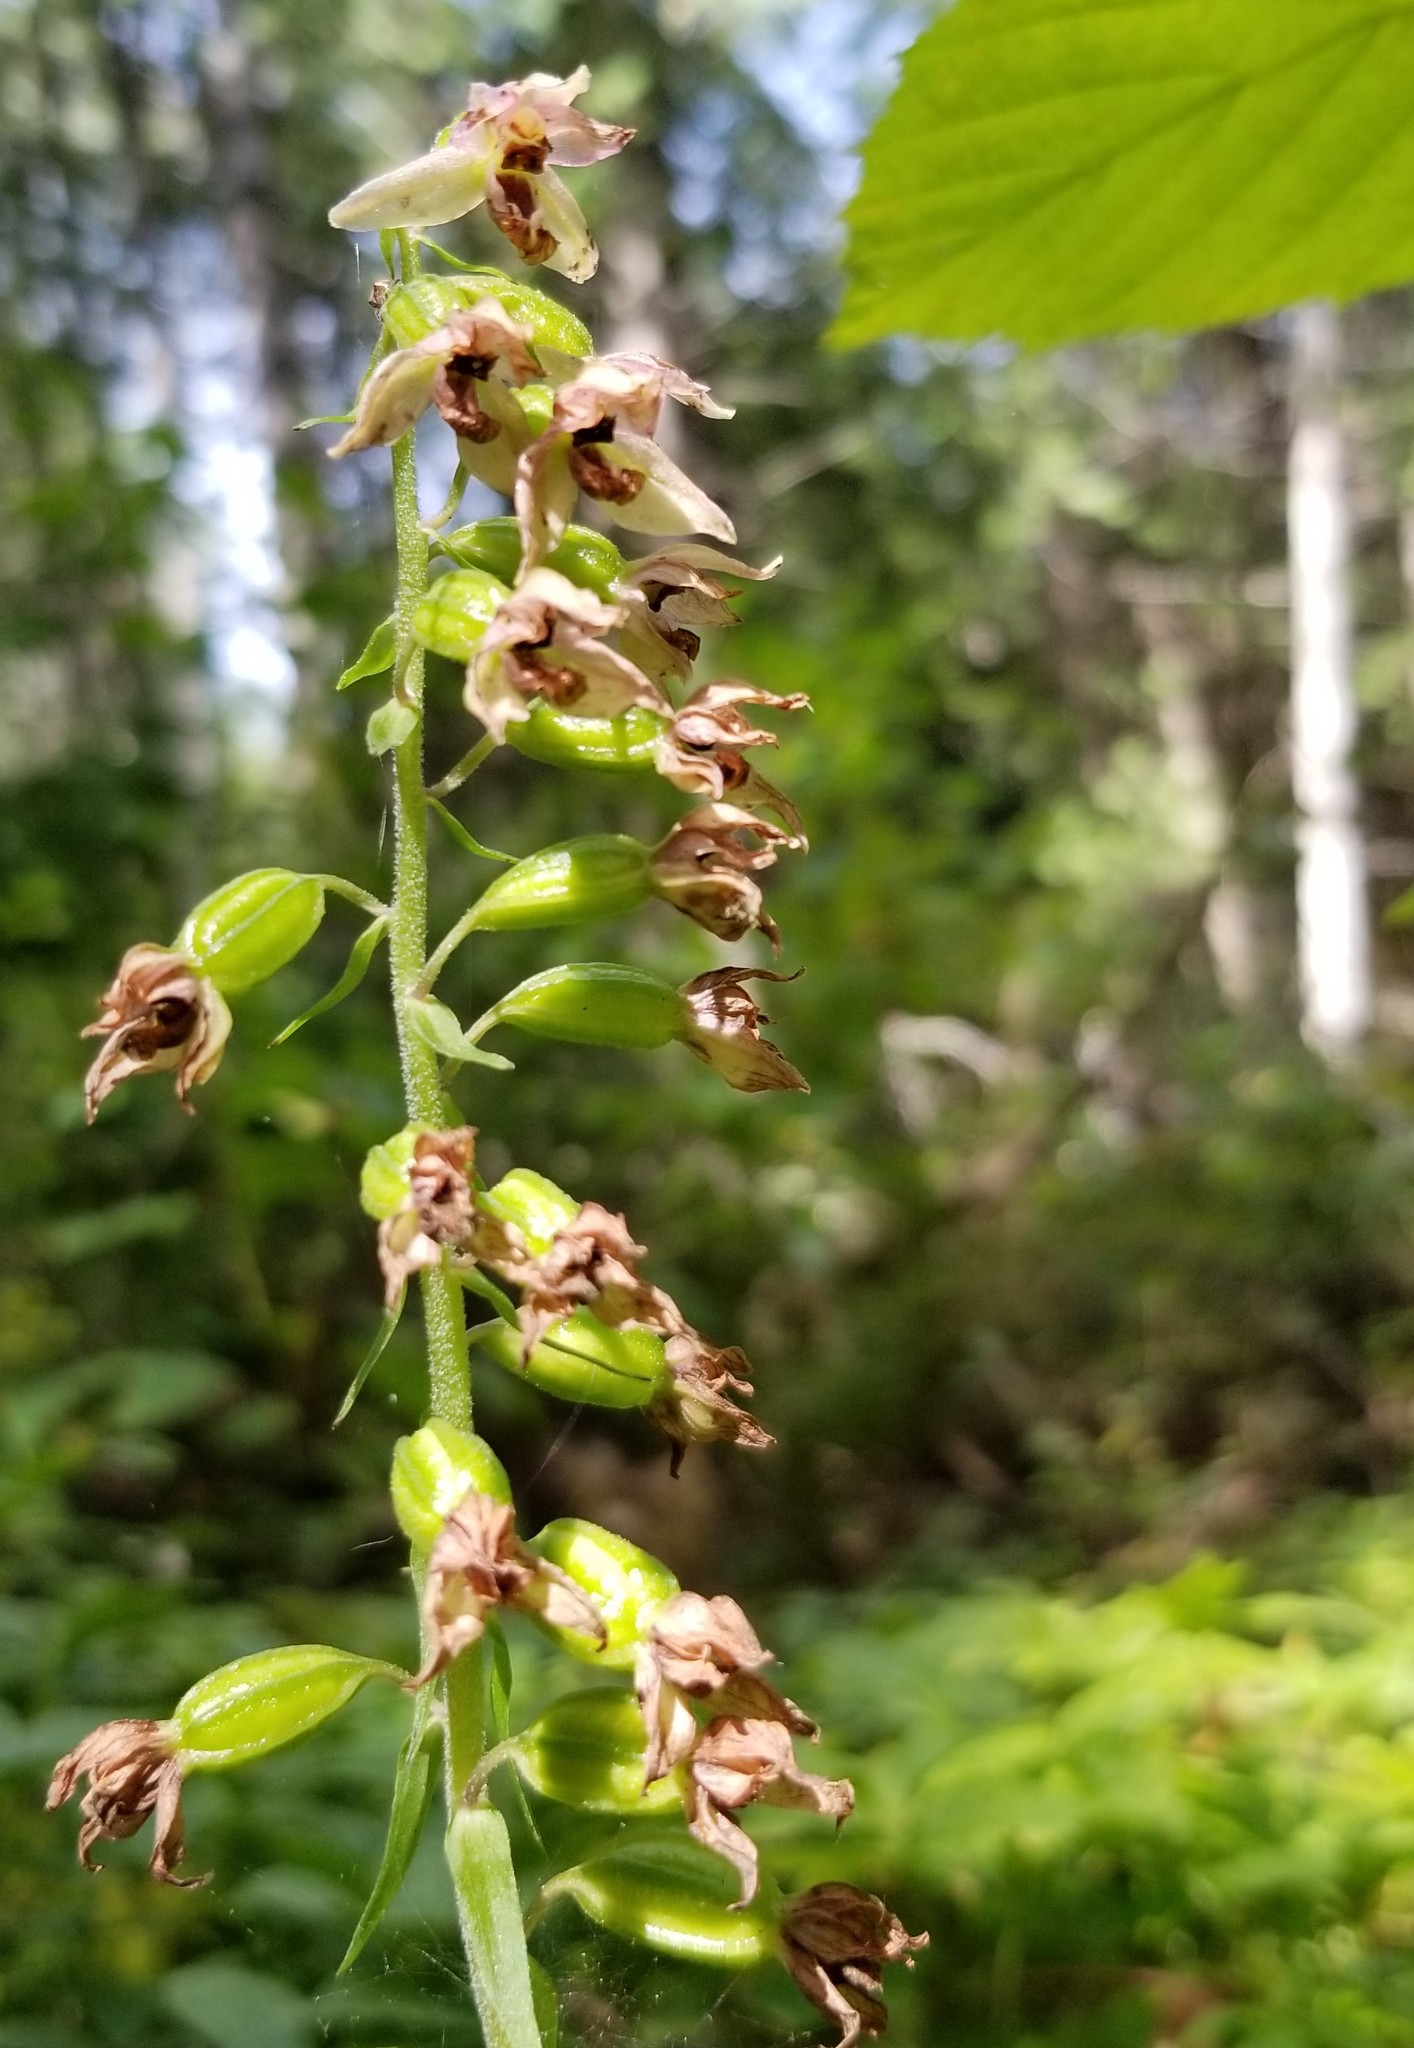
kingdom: Plantae
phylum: Tracheophyta
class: Liliopsida
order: Asparagales
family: Orchidaceae
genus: Epipactis
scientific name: Epipactis helleborine
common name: Broad-leaved helleborine
